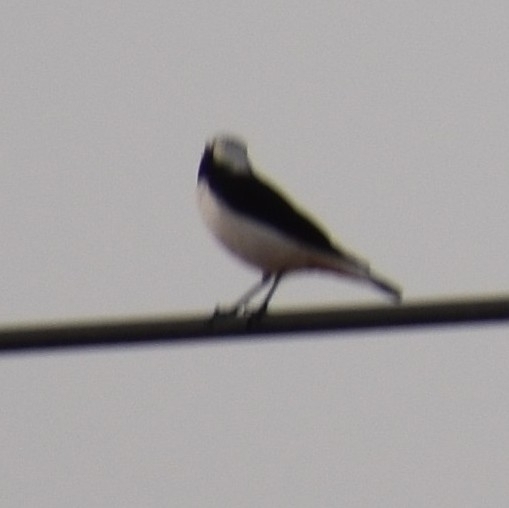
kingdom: Animalia
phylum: Chordata
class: Aves
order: Passeriformes
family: Muscicapidae
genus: Oenanthe
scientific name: Oenanthe lugens
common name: Mourning wheatear
